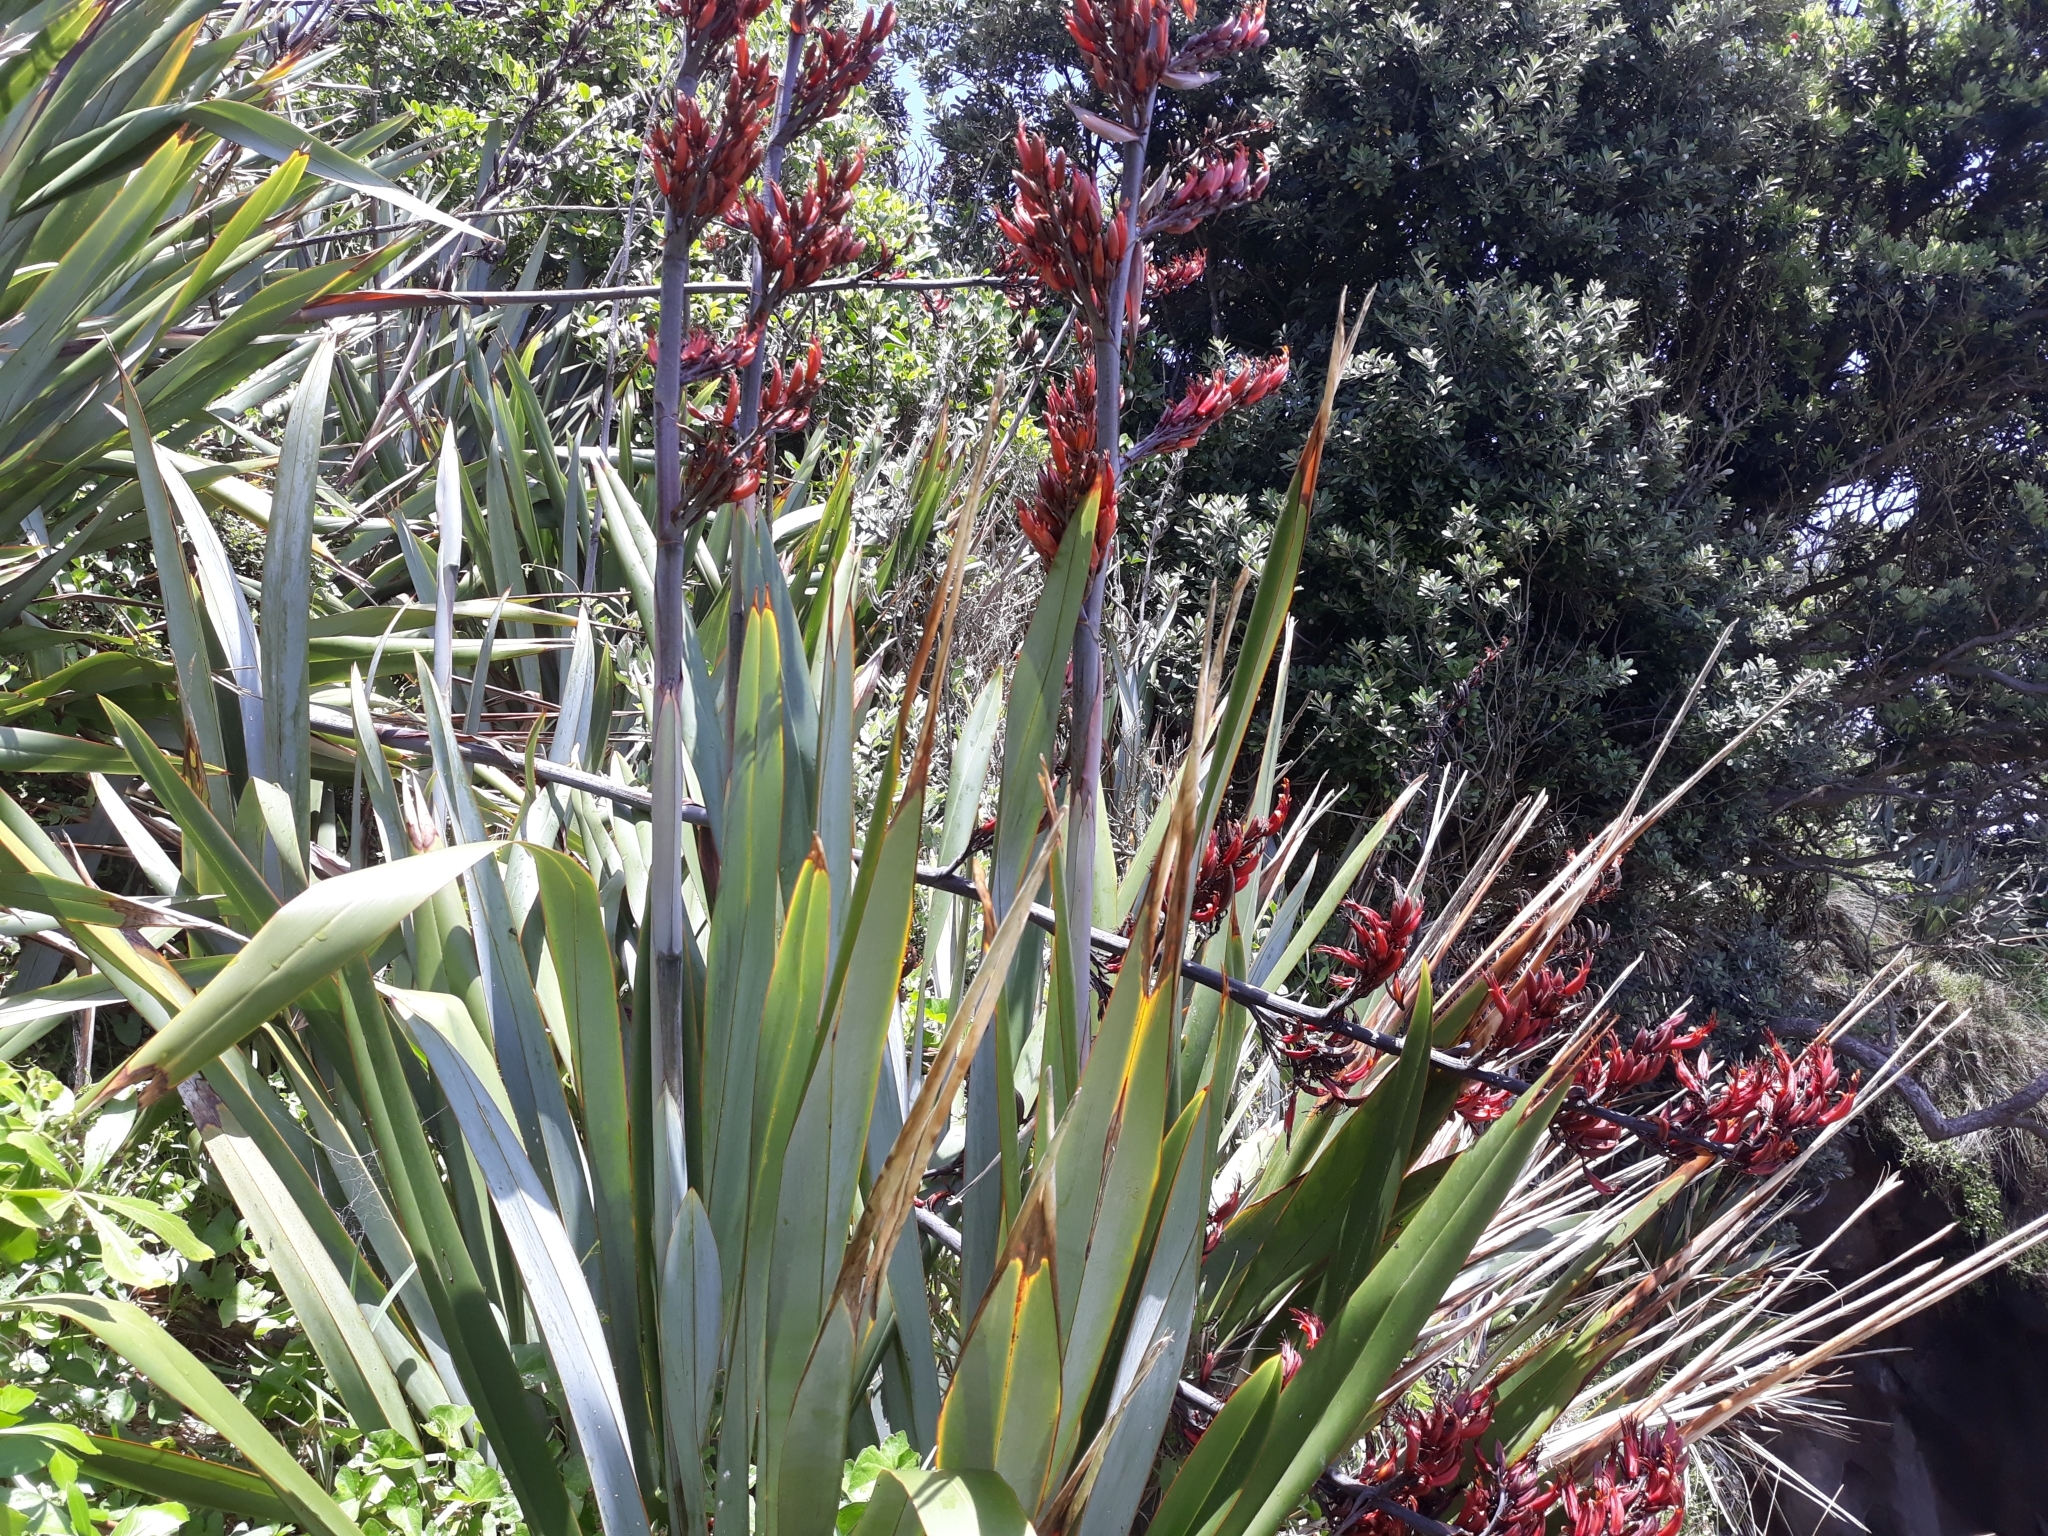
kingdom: Plantae
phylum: Tracheophyta
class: Liliopsida
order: Asparagales
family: Asphodelaceae
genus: Phormium
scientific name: Phormium tenax
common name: New zealand flax
